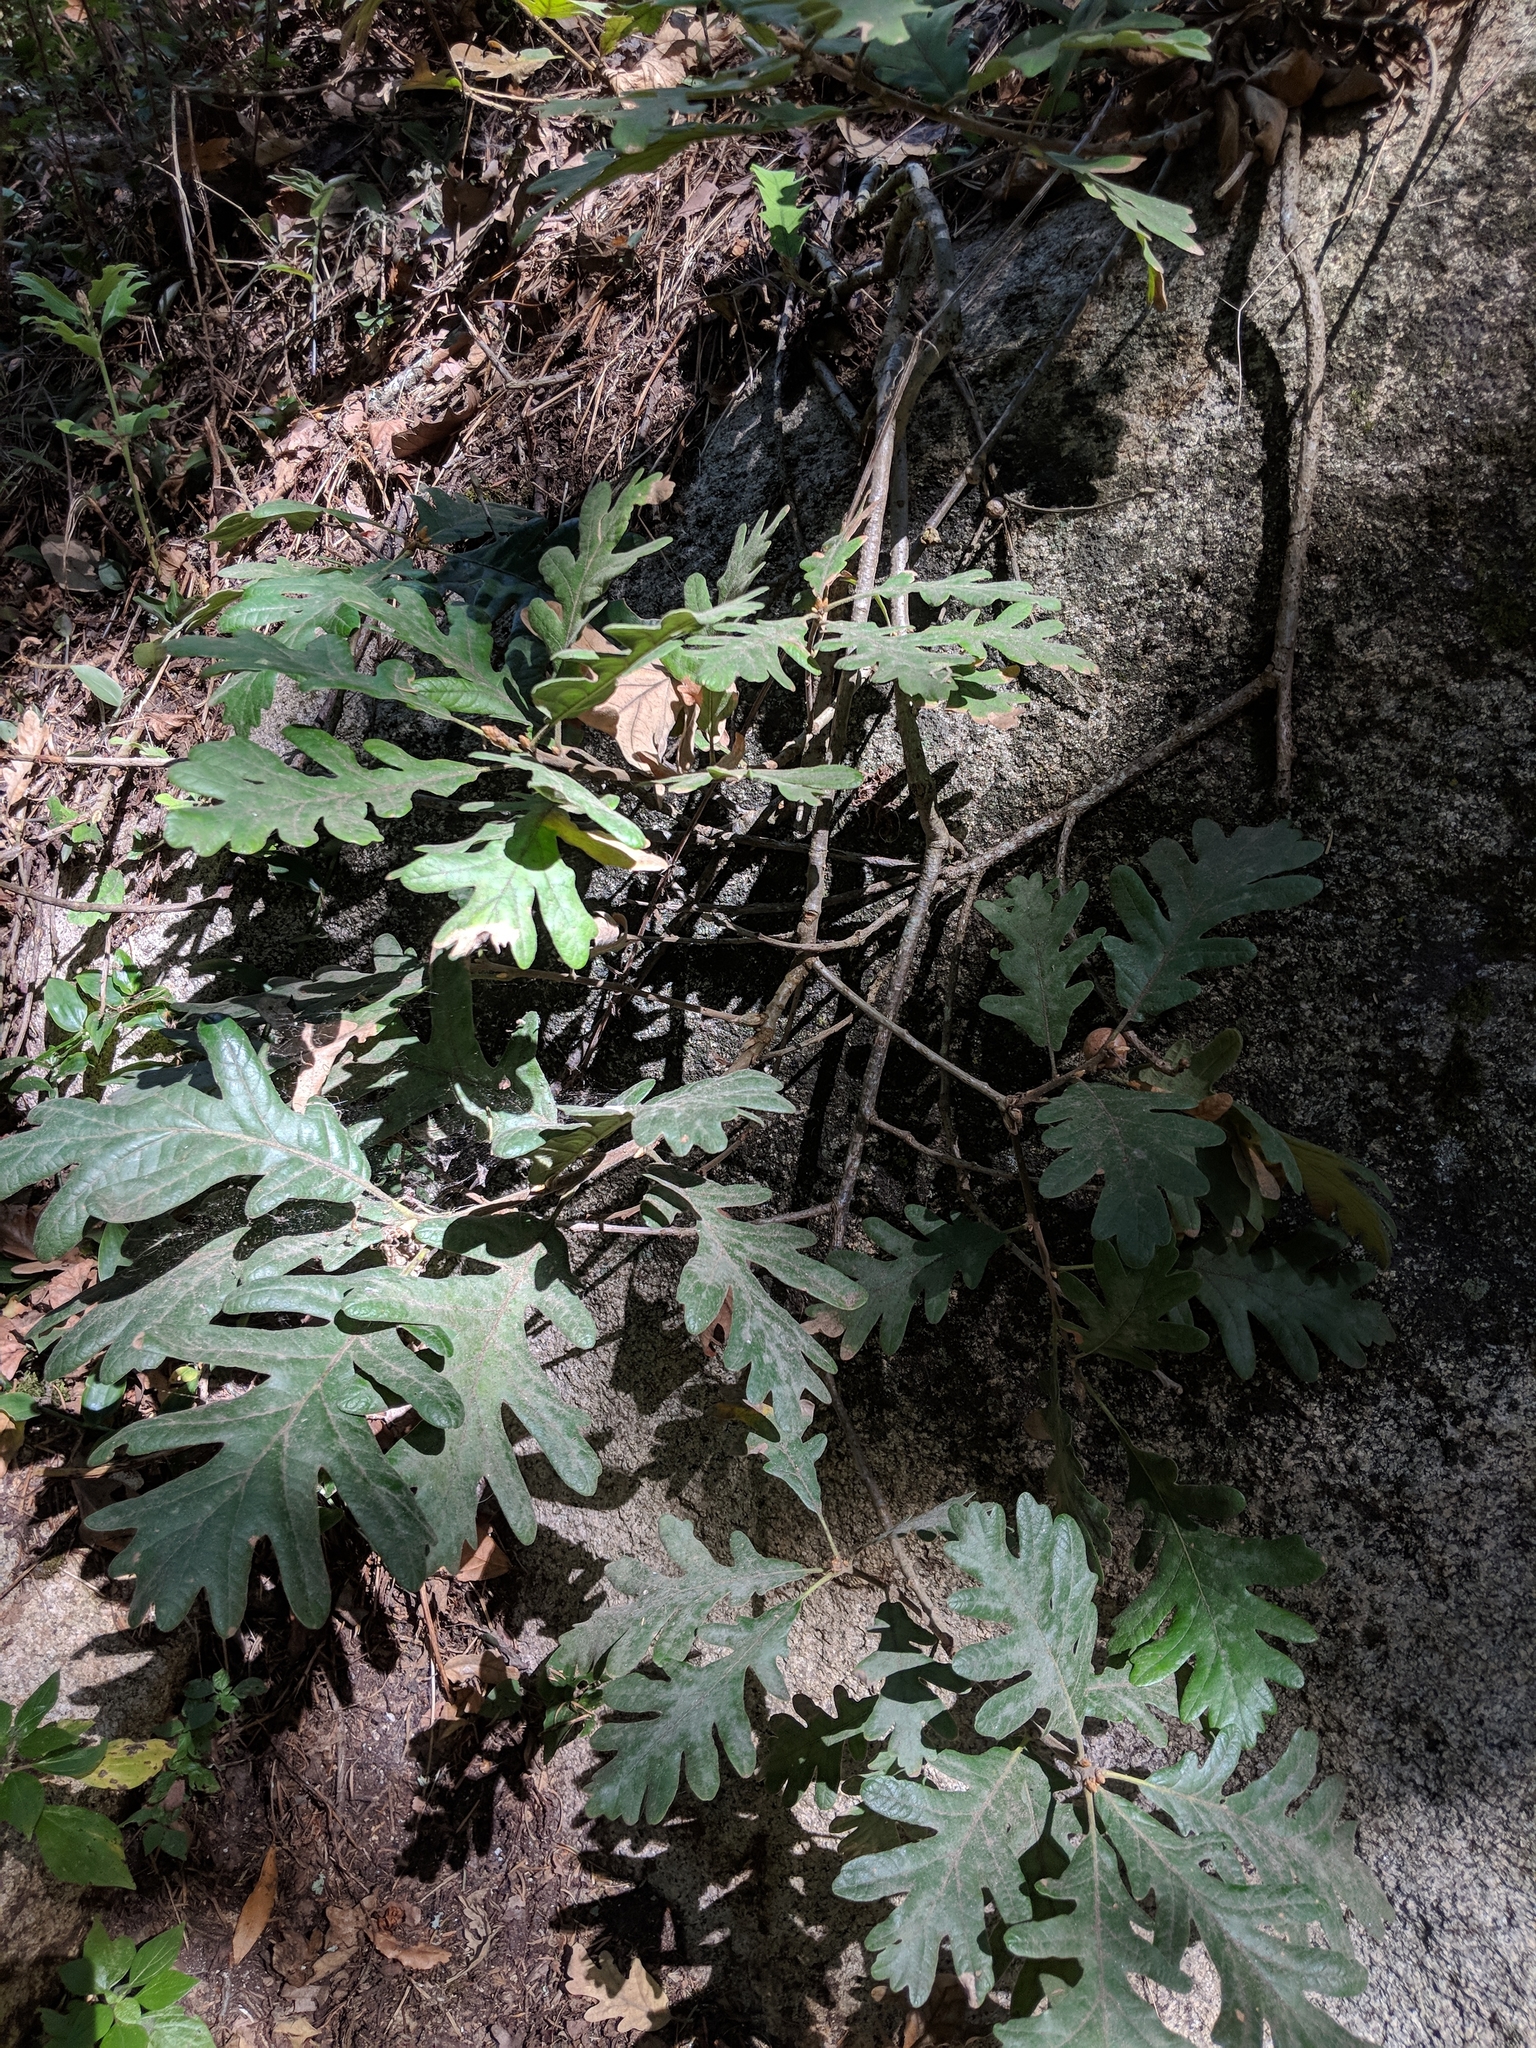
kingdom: Plantae
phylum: Tracheophyta
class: Magnoliopsida
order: Fagales
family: Fagaceae
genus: Quercus
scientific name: Quercus pyrenaica
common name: Pyrenean oak
